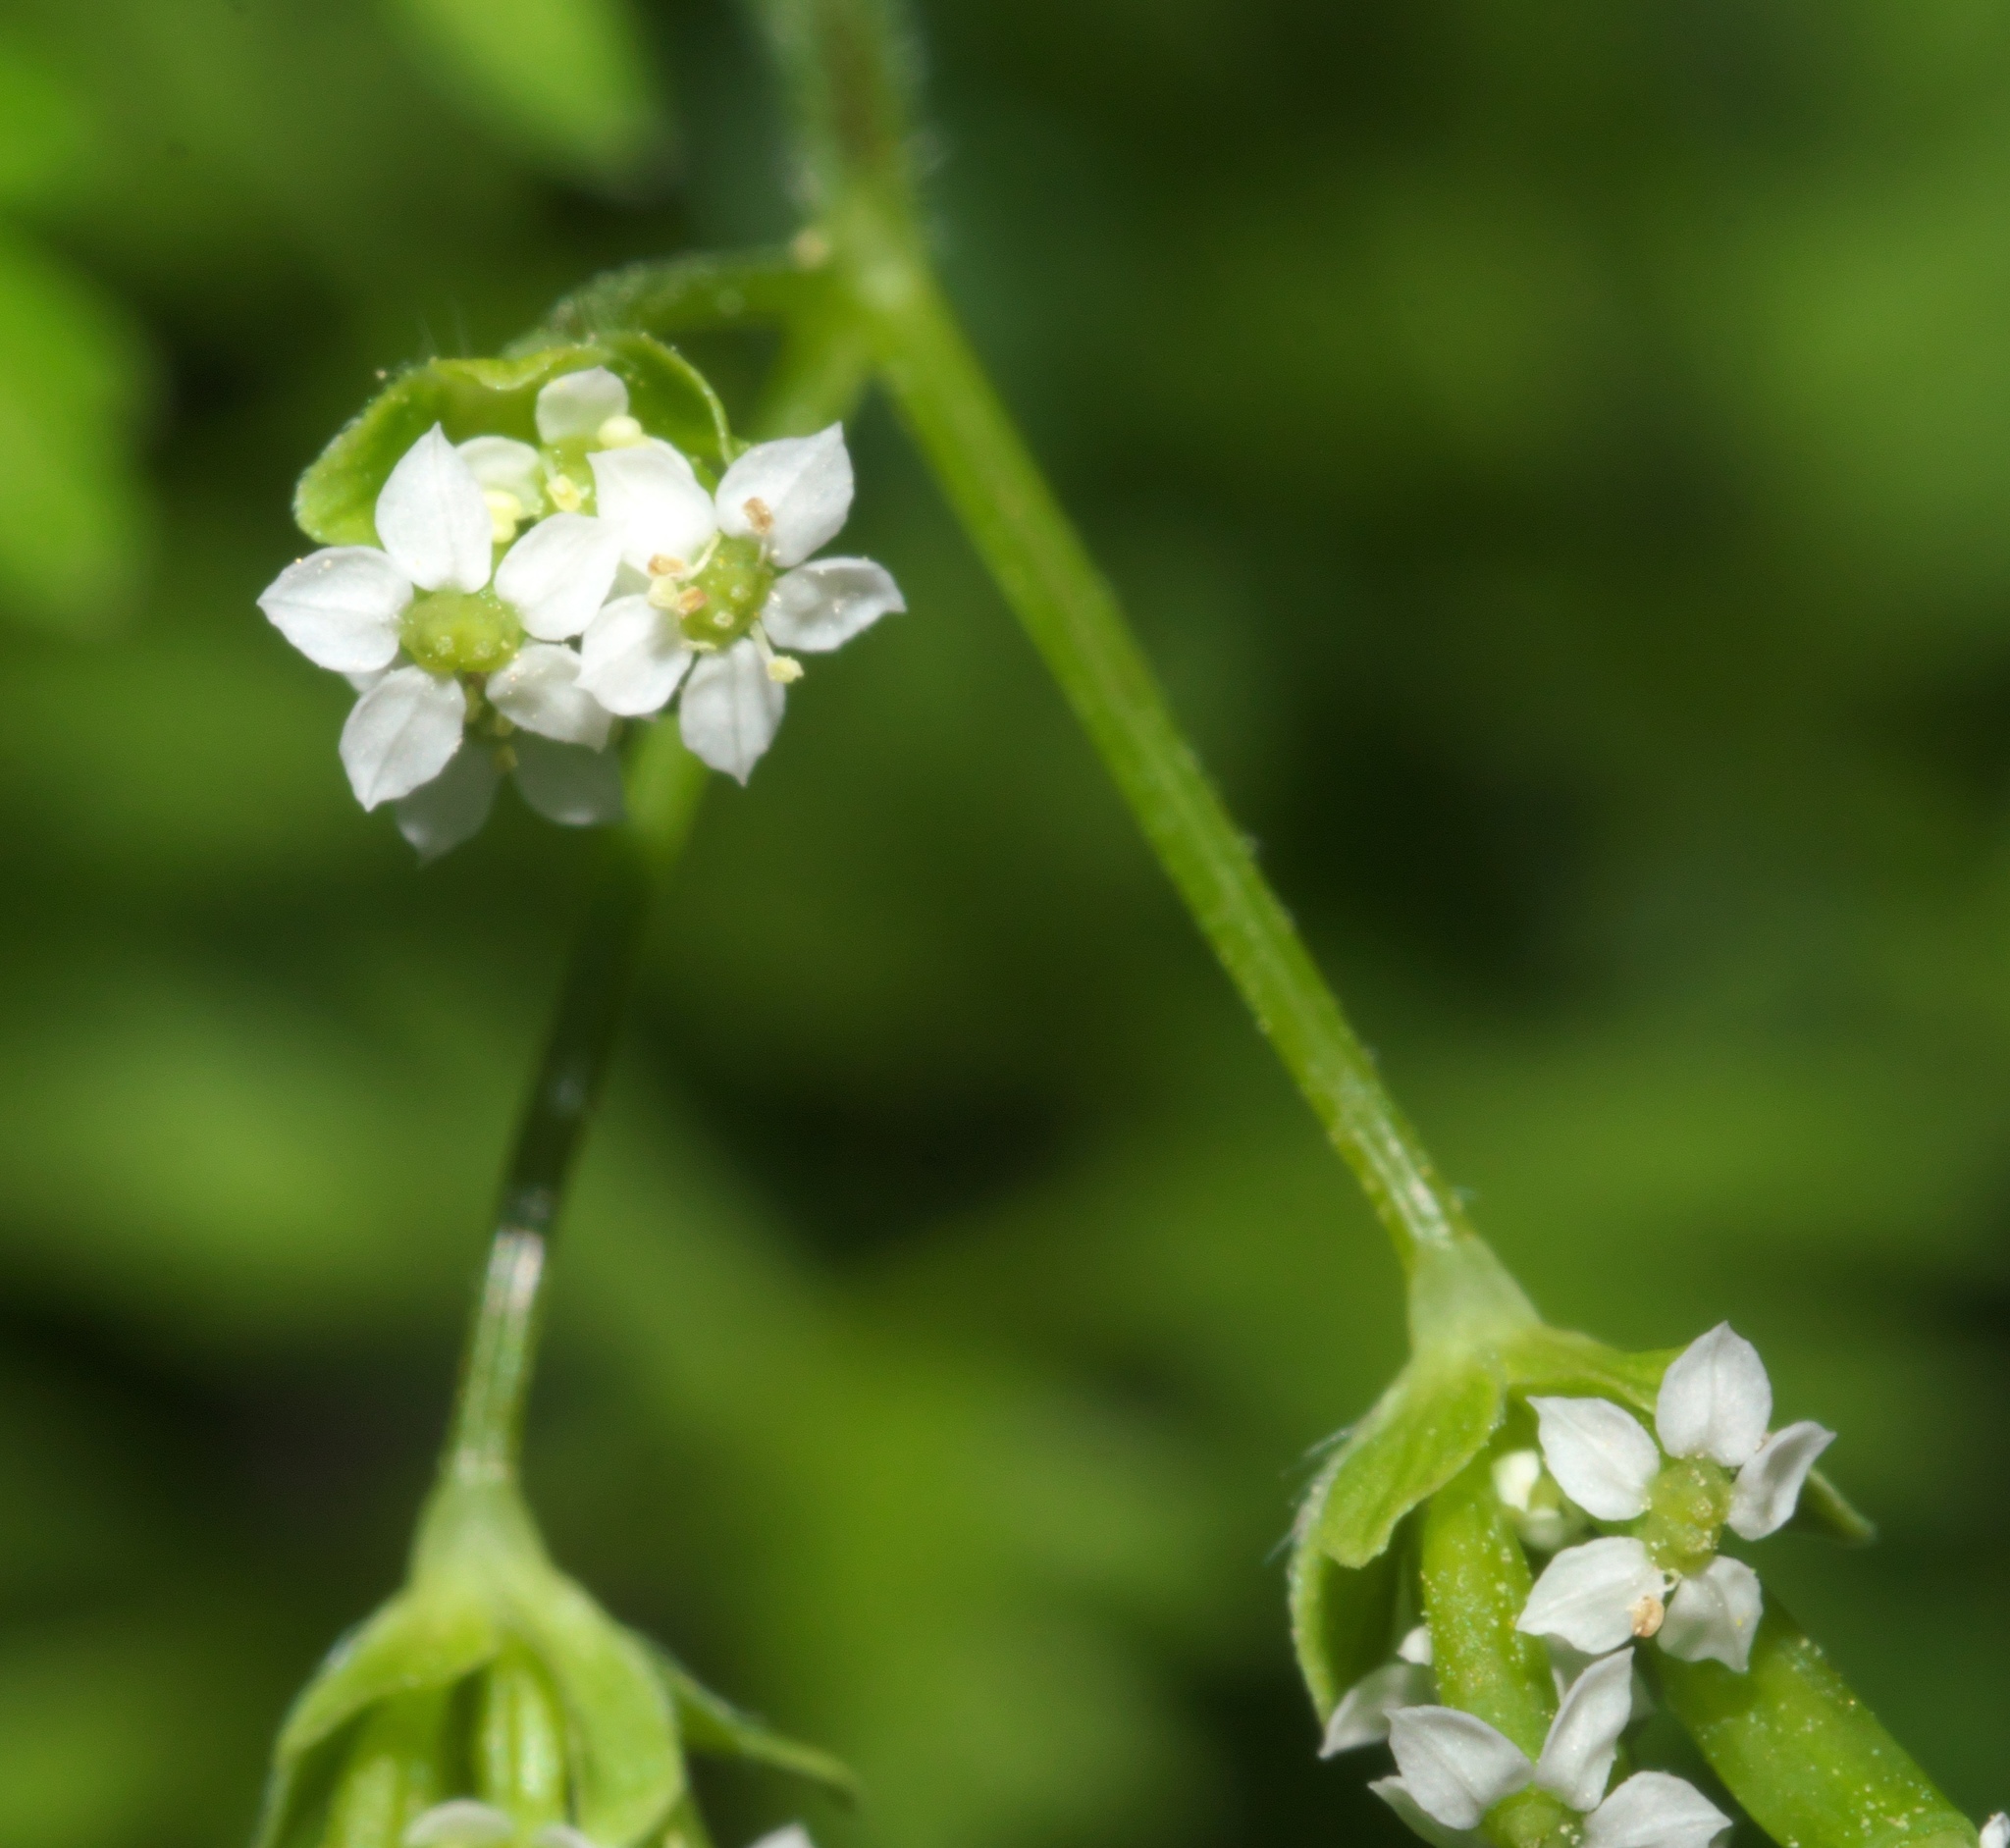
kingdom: Plantae
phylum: Tracheophyta
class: Magnoliopsida
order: Apiales
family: Apiaceae
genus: Chaerophyllum
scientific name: Chaerophyllum tainturieri
